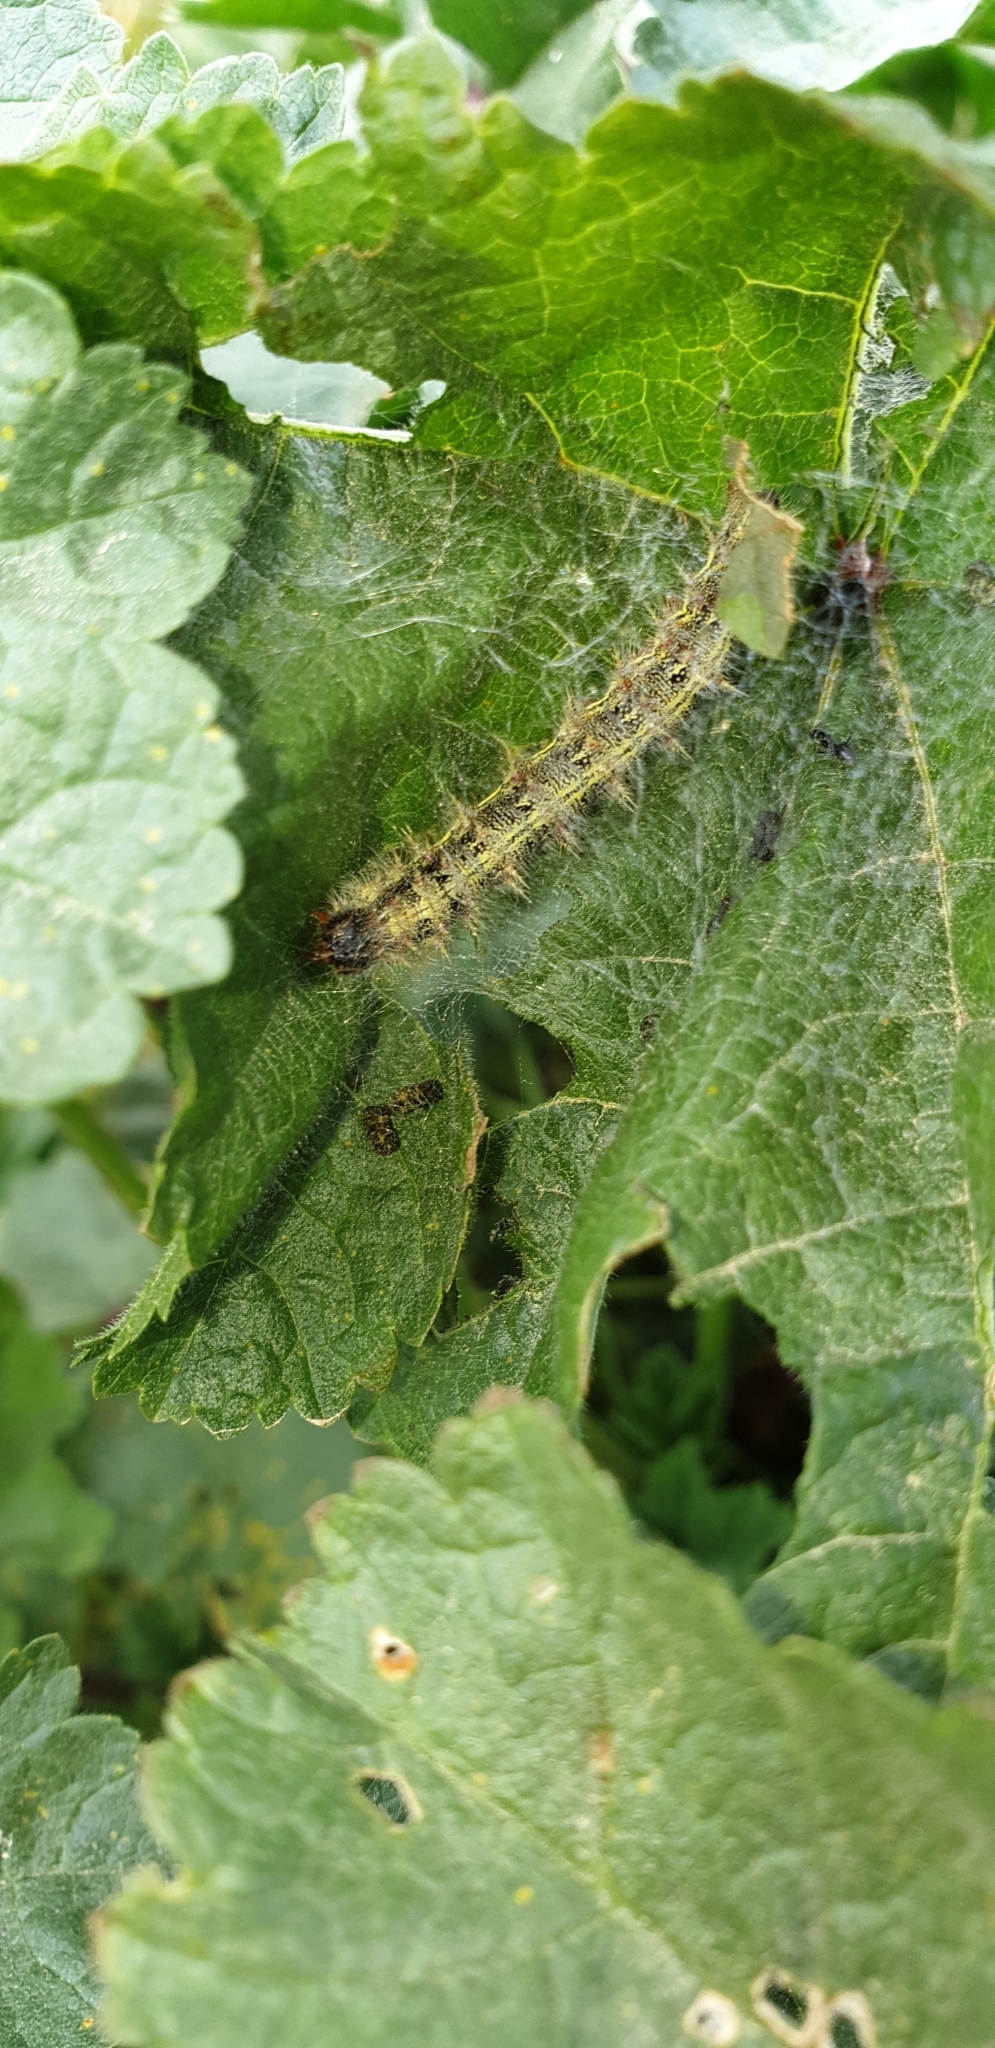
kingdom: Animalia
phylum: Arthropoda
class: Insecta
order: Lepidoptera
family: Nymphalidae
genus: Vanessa
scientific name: Vanessa cardui
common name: Painted lady
